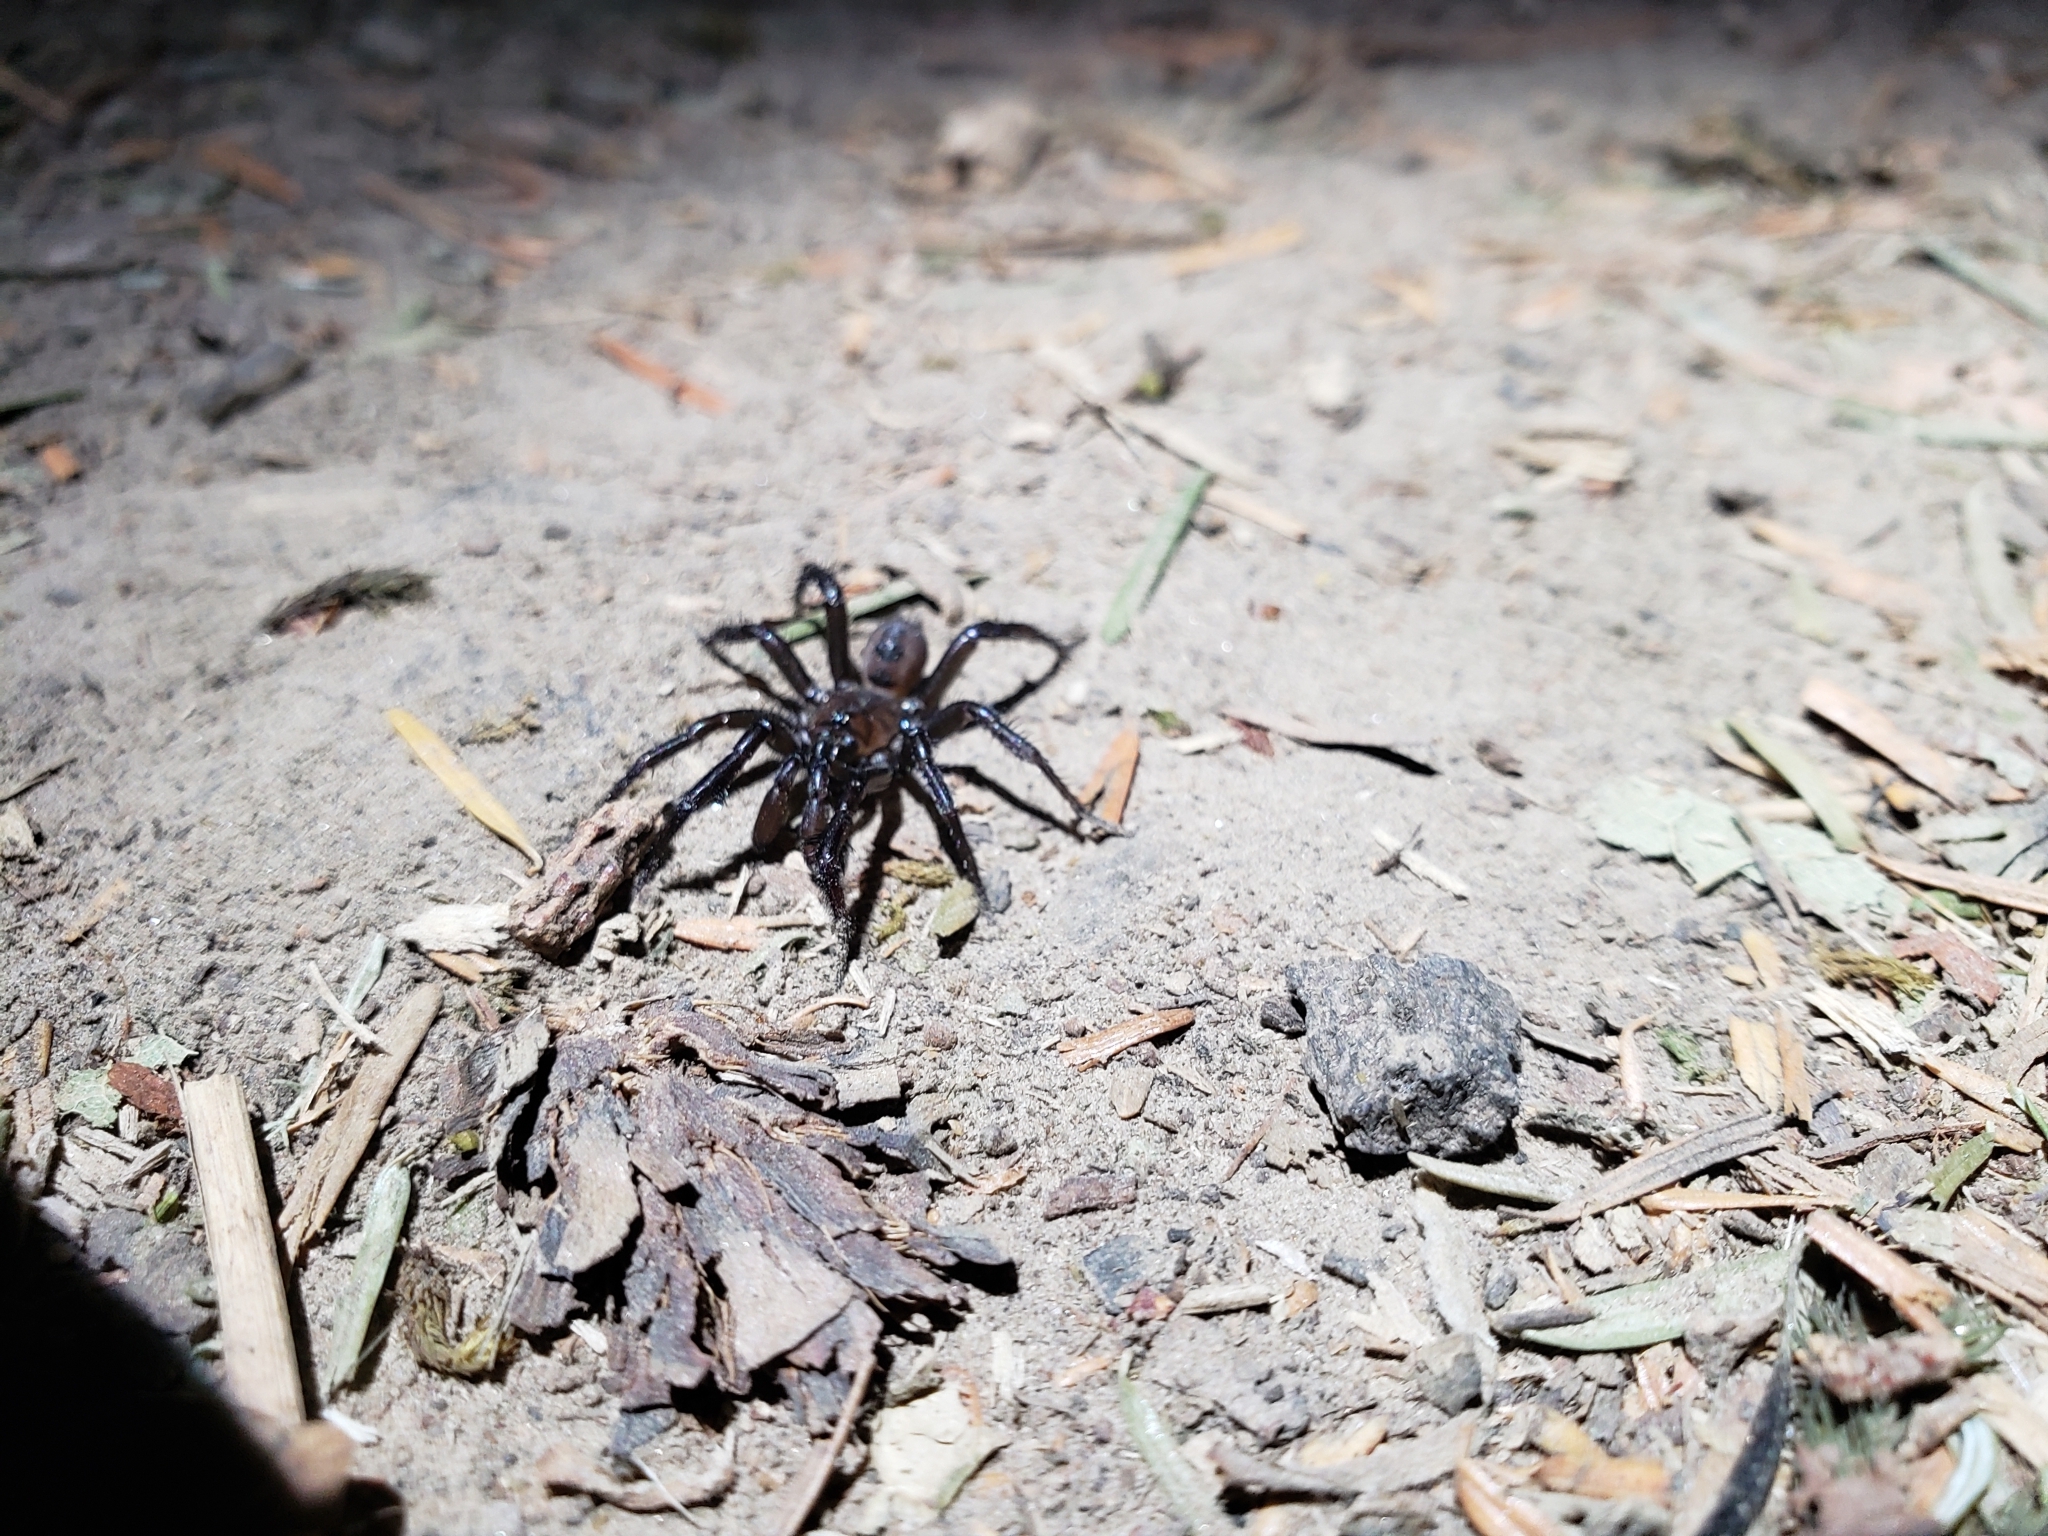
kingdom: Animalia
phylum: Arthropoda
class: Arachnida
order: Araneae
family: Antrodiaetidae
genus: Antrodiaetus
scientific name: Antrodiaetus pacificus
